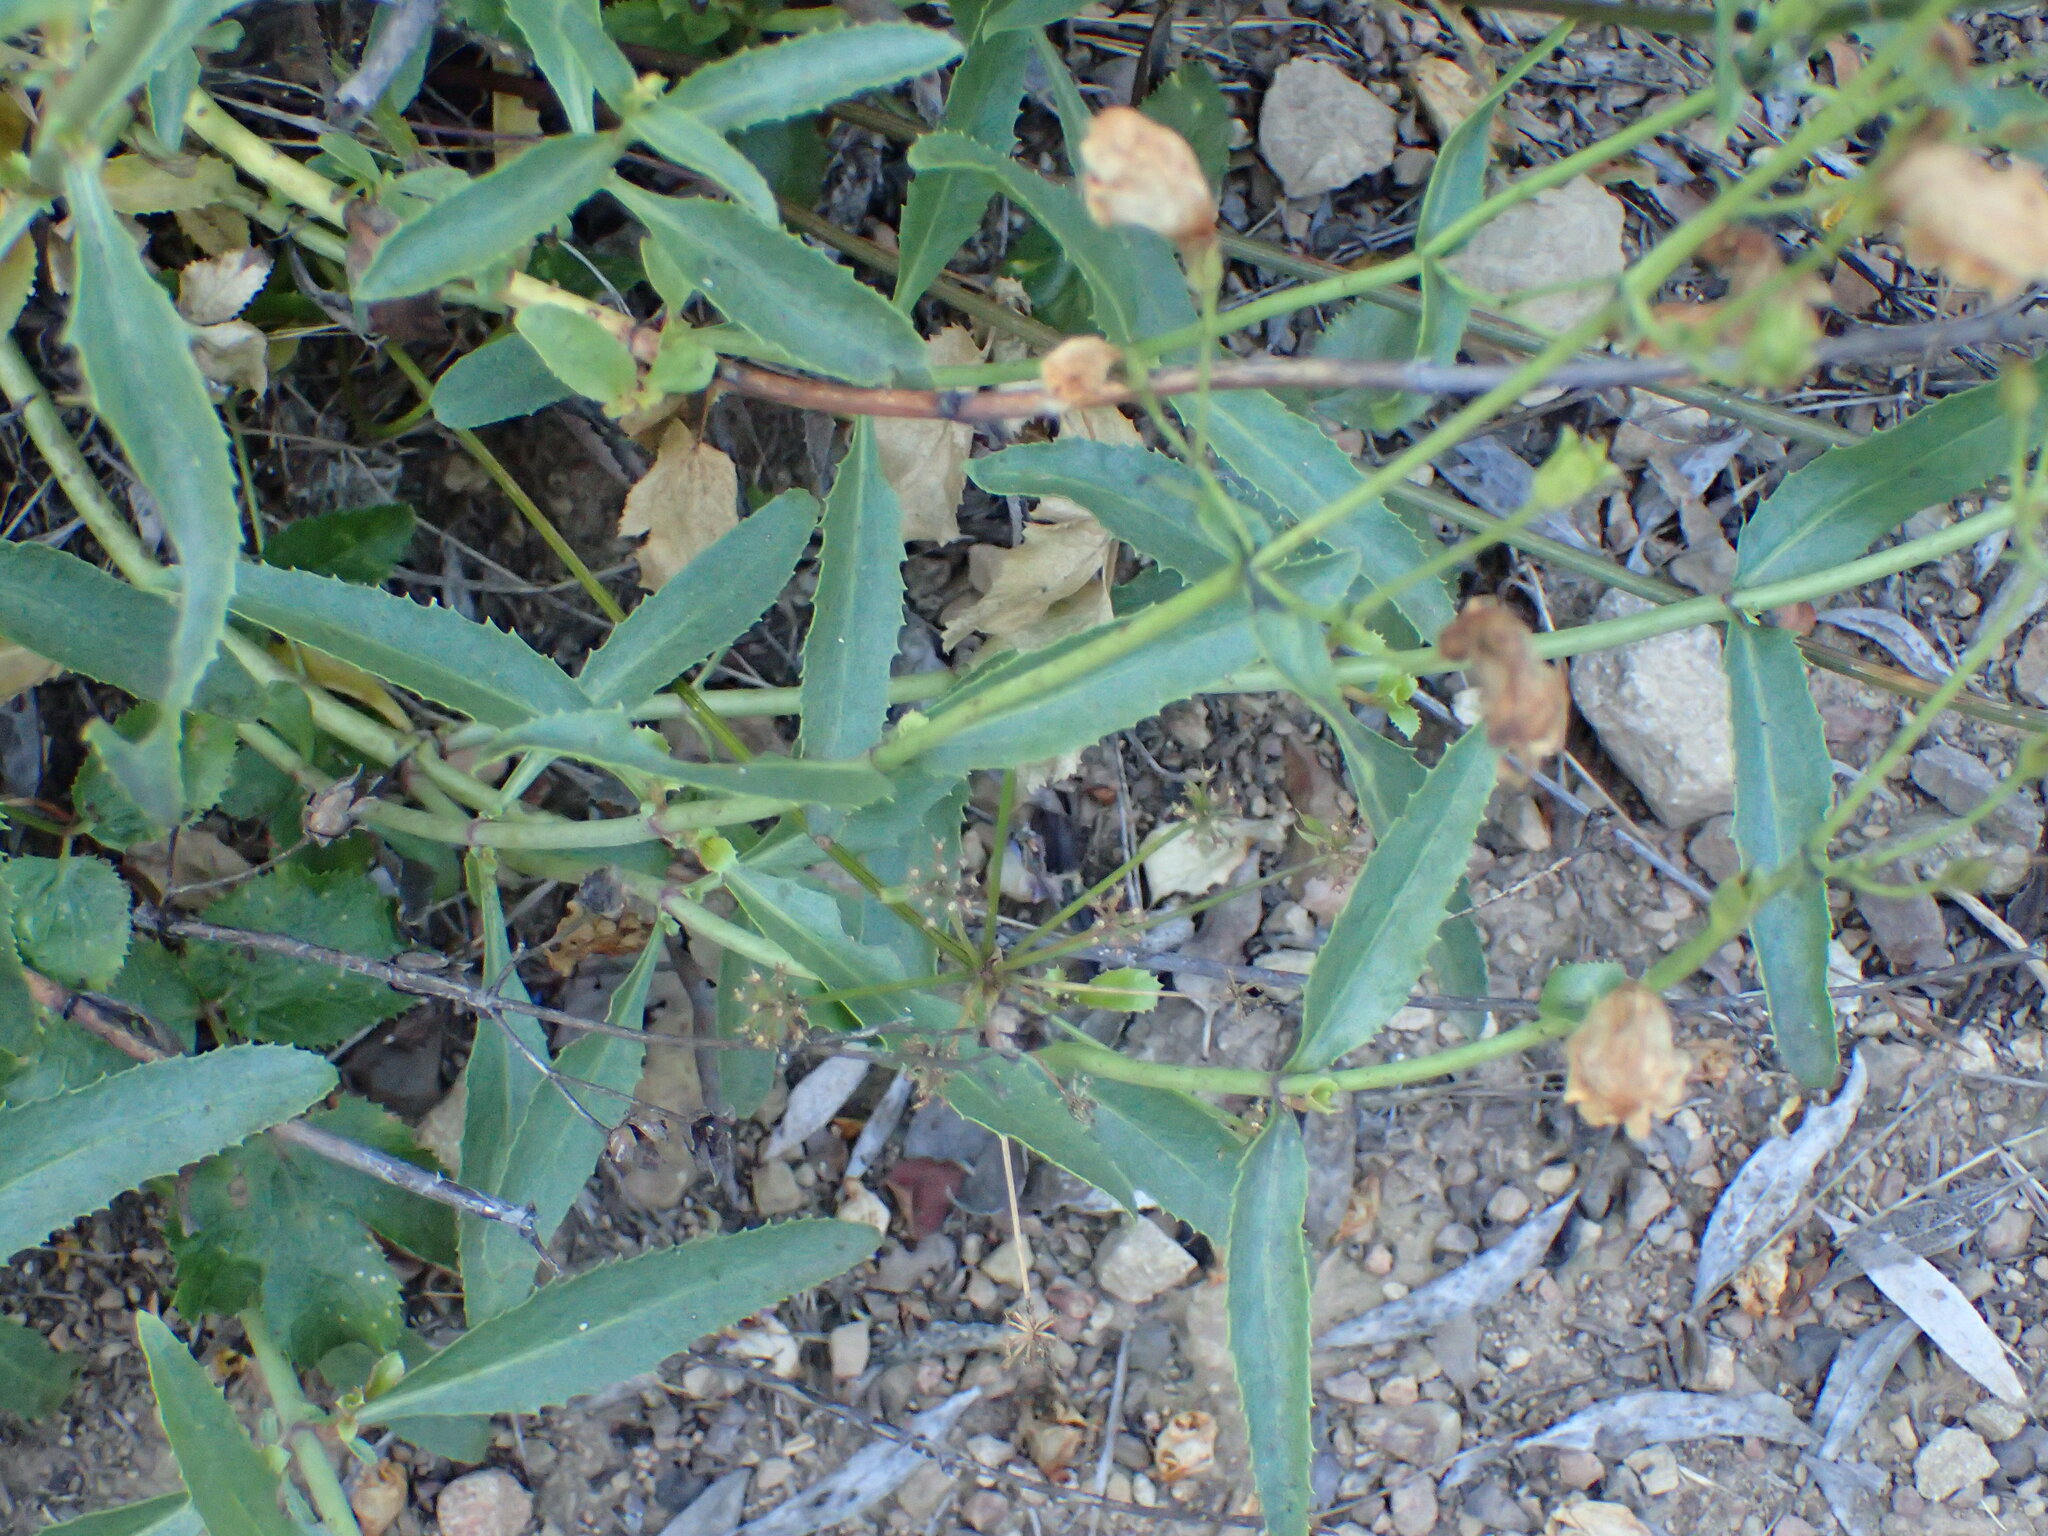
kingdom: Plantae
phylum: Tracheophyta
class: Magnoliopsida
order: Lamiales
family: Plantaginaceae
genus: Penstemon
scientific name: Penstemon grinnellii
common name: Grinnell's beardtongue
